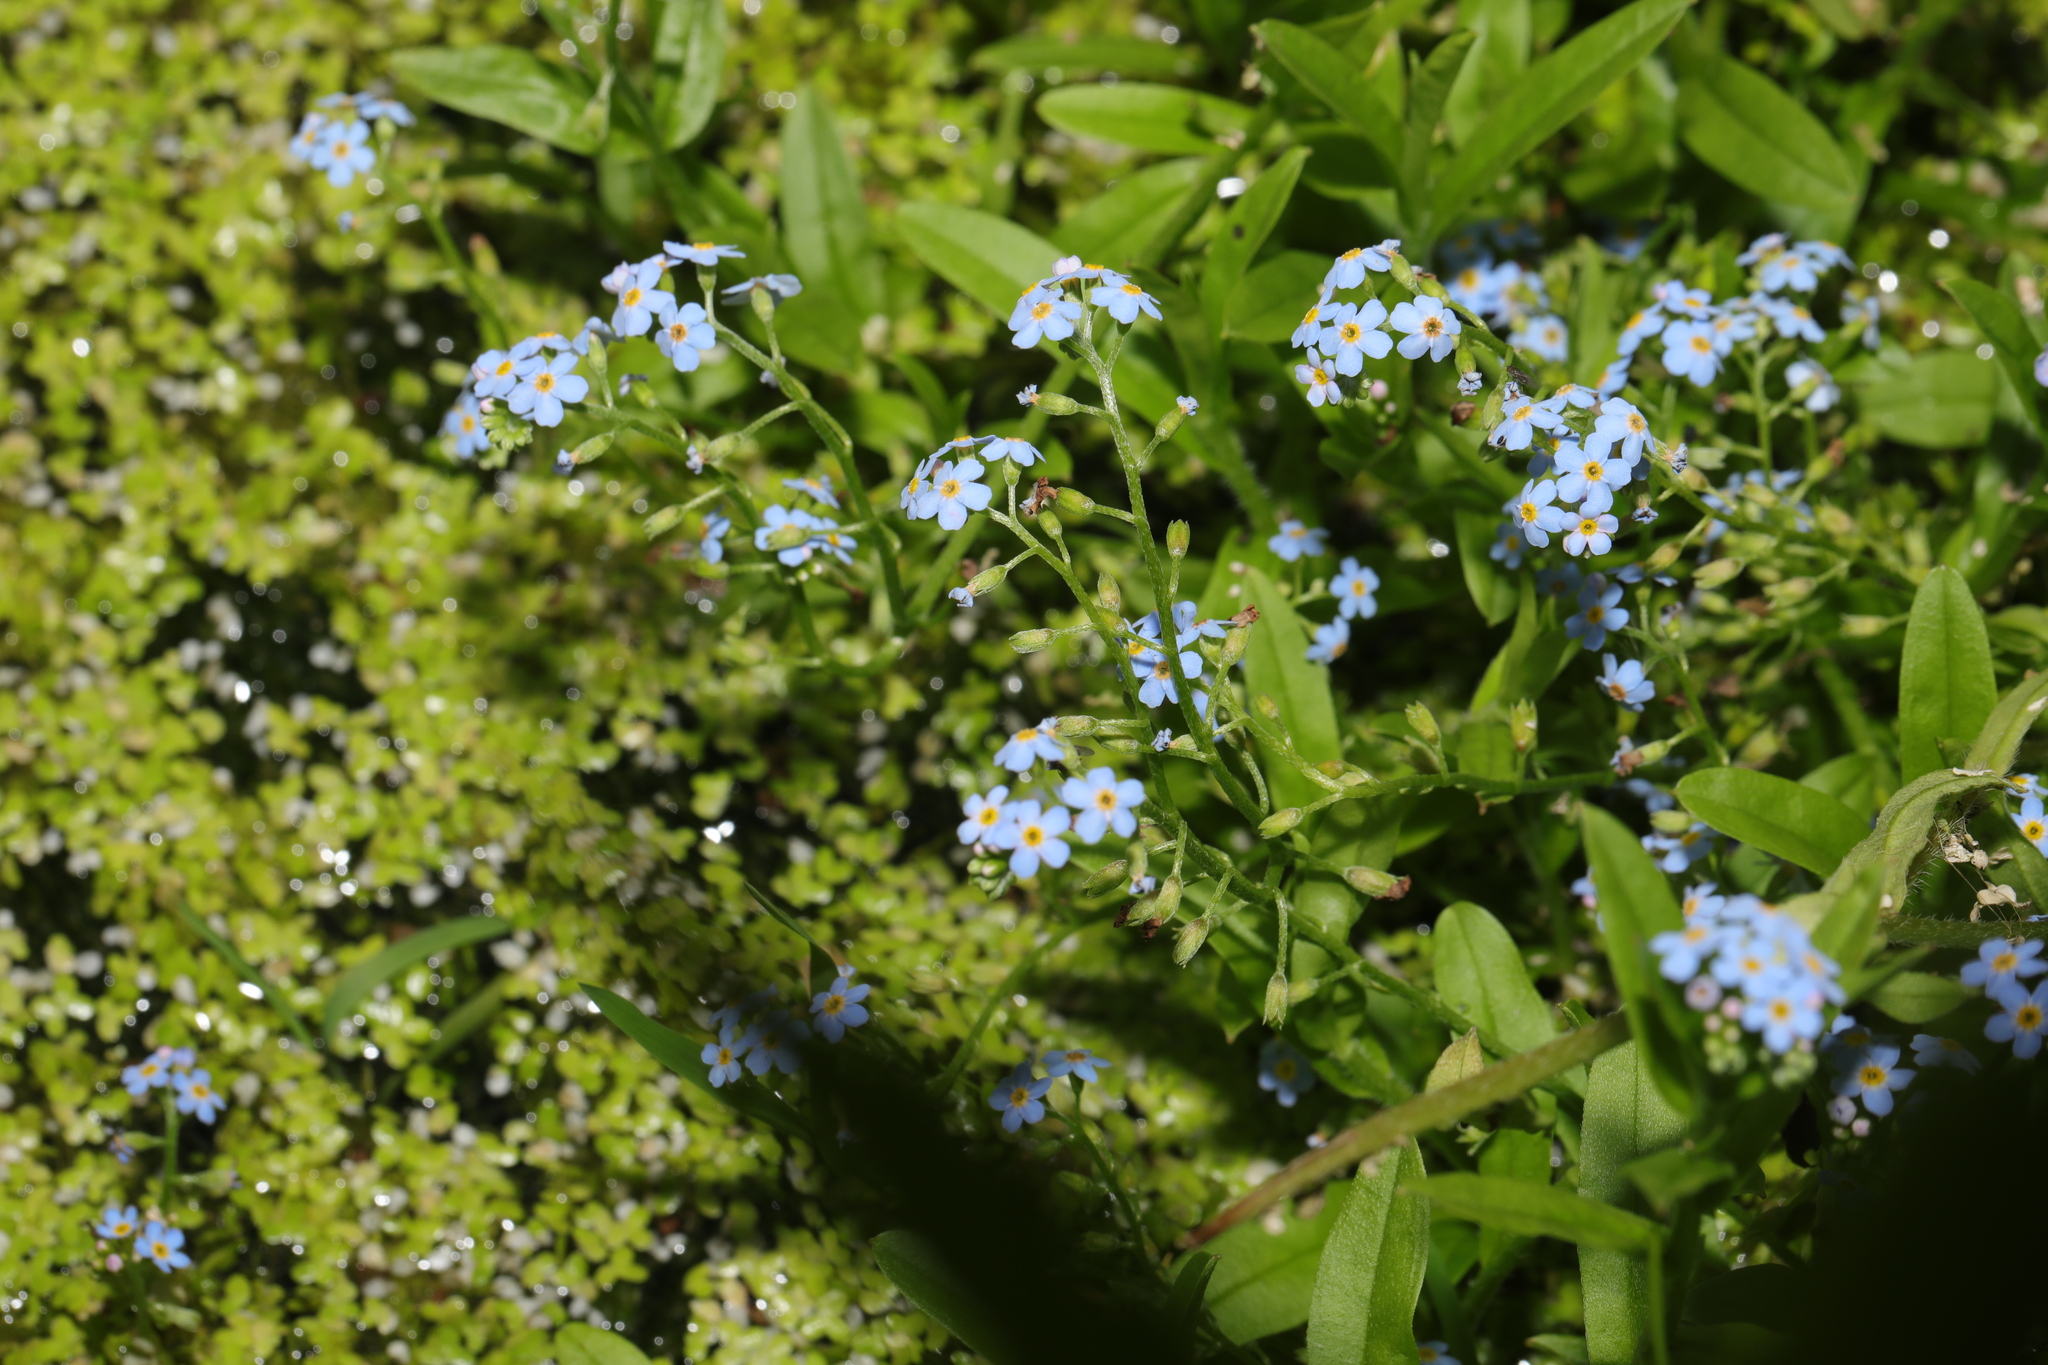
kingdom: Plantae
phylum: Tracheophyta
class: Magnoliopsida
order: Boraginales
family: Boraginaceae
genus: Myosotis
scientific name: Myosotis scorpioides
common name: Water forget-me-not
